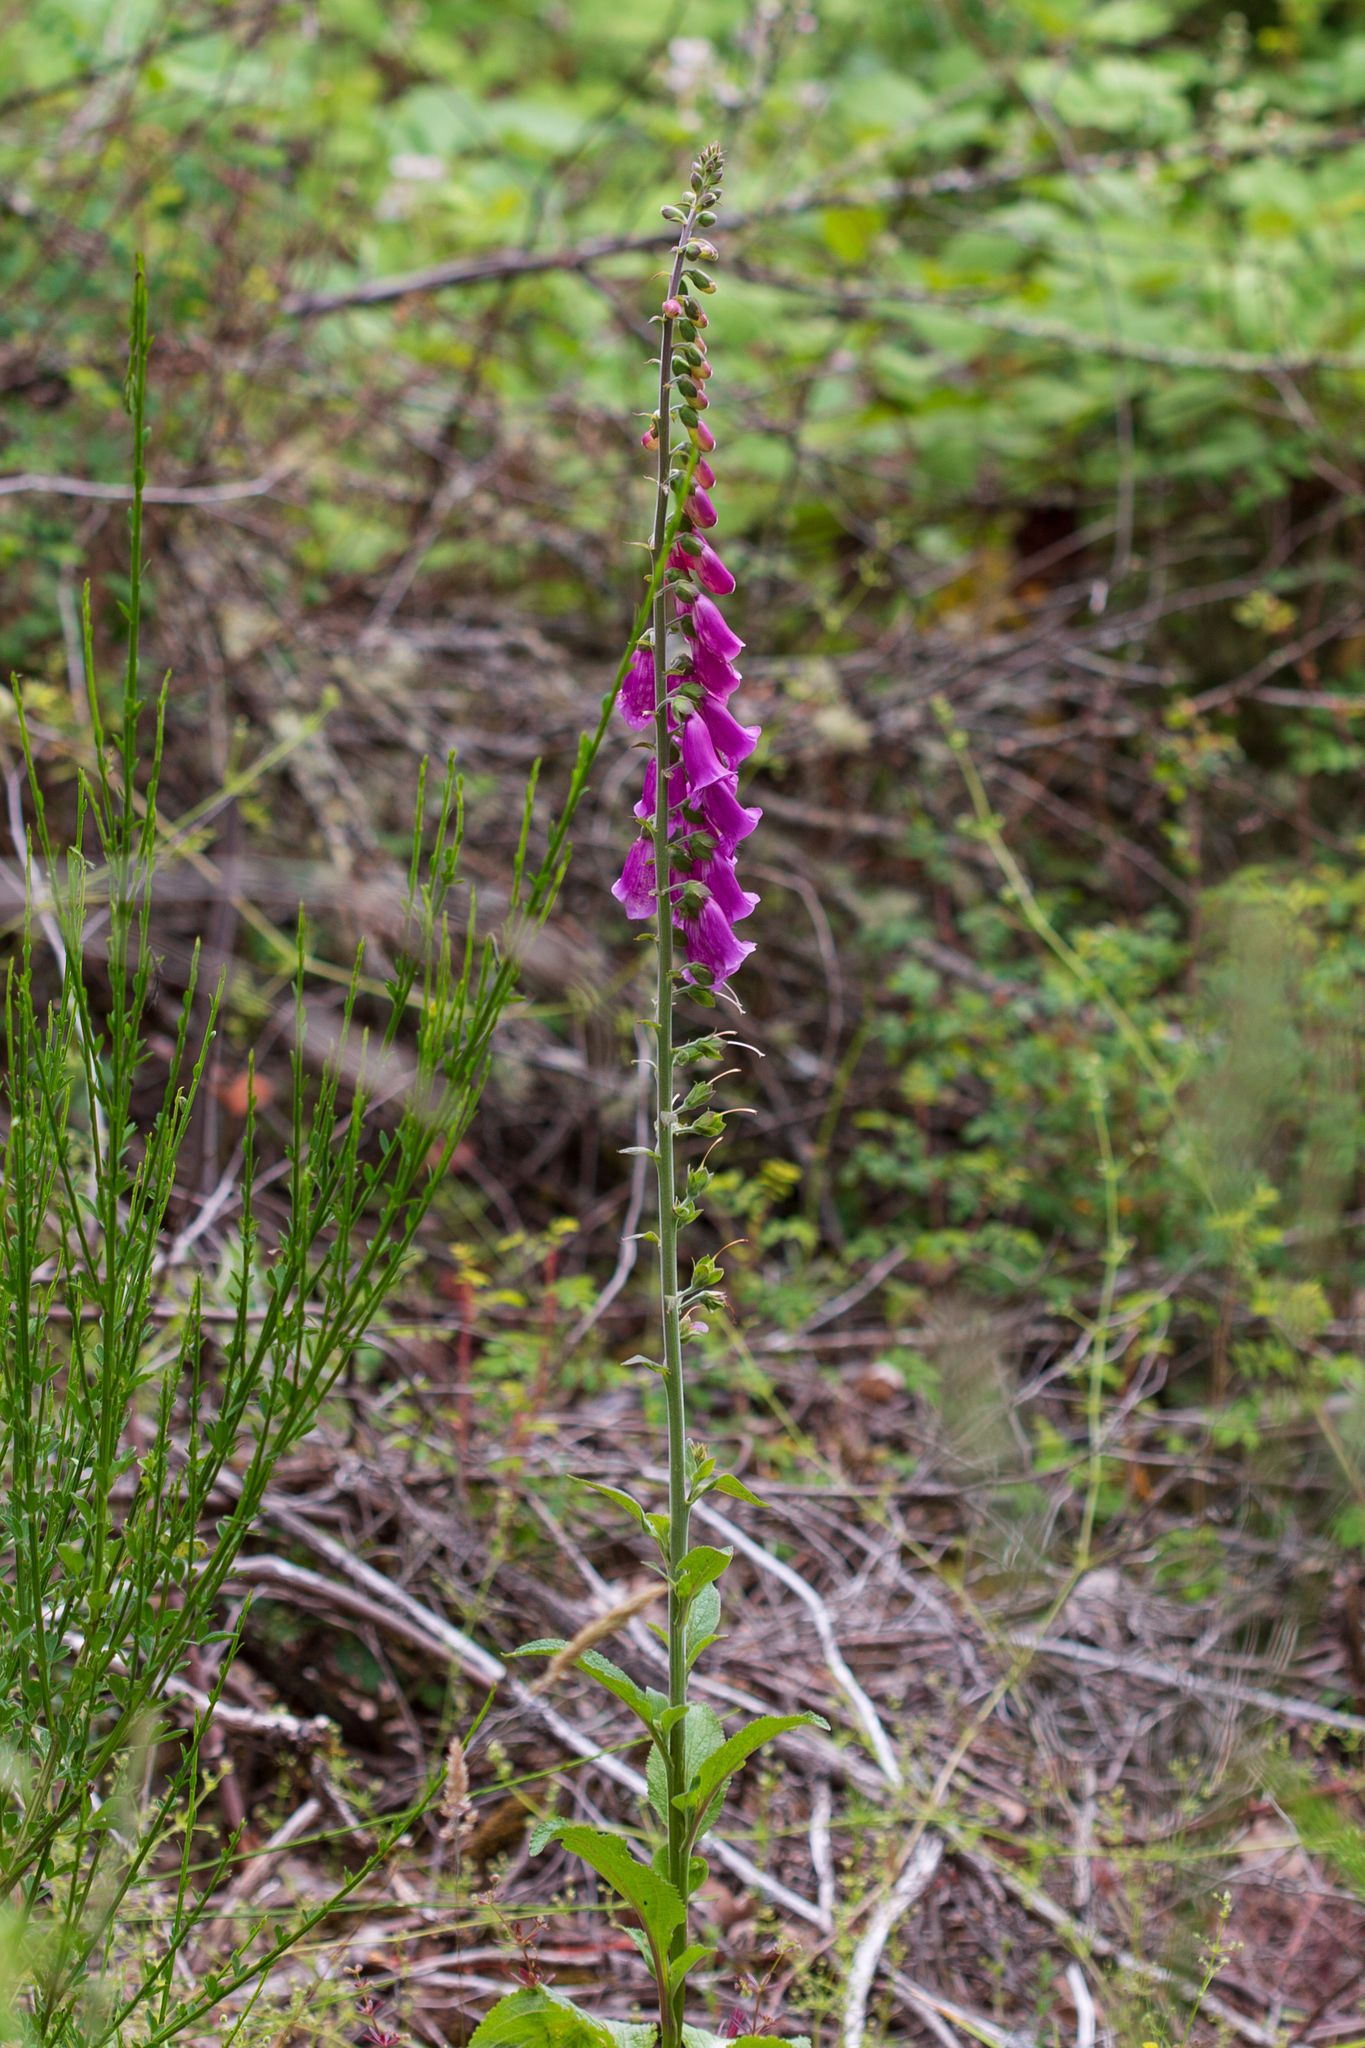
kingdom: Plantae
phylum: Tracheophyta
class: Magnoliopsida
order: Lamiales
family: Plantaginaceae
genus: Digitalis
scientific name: Digitalis purpurea
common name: Foxglove
